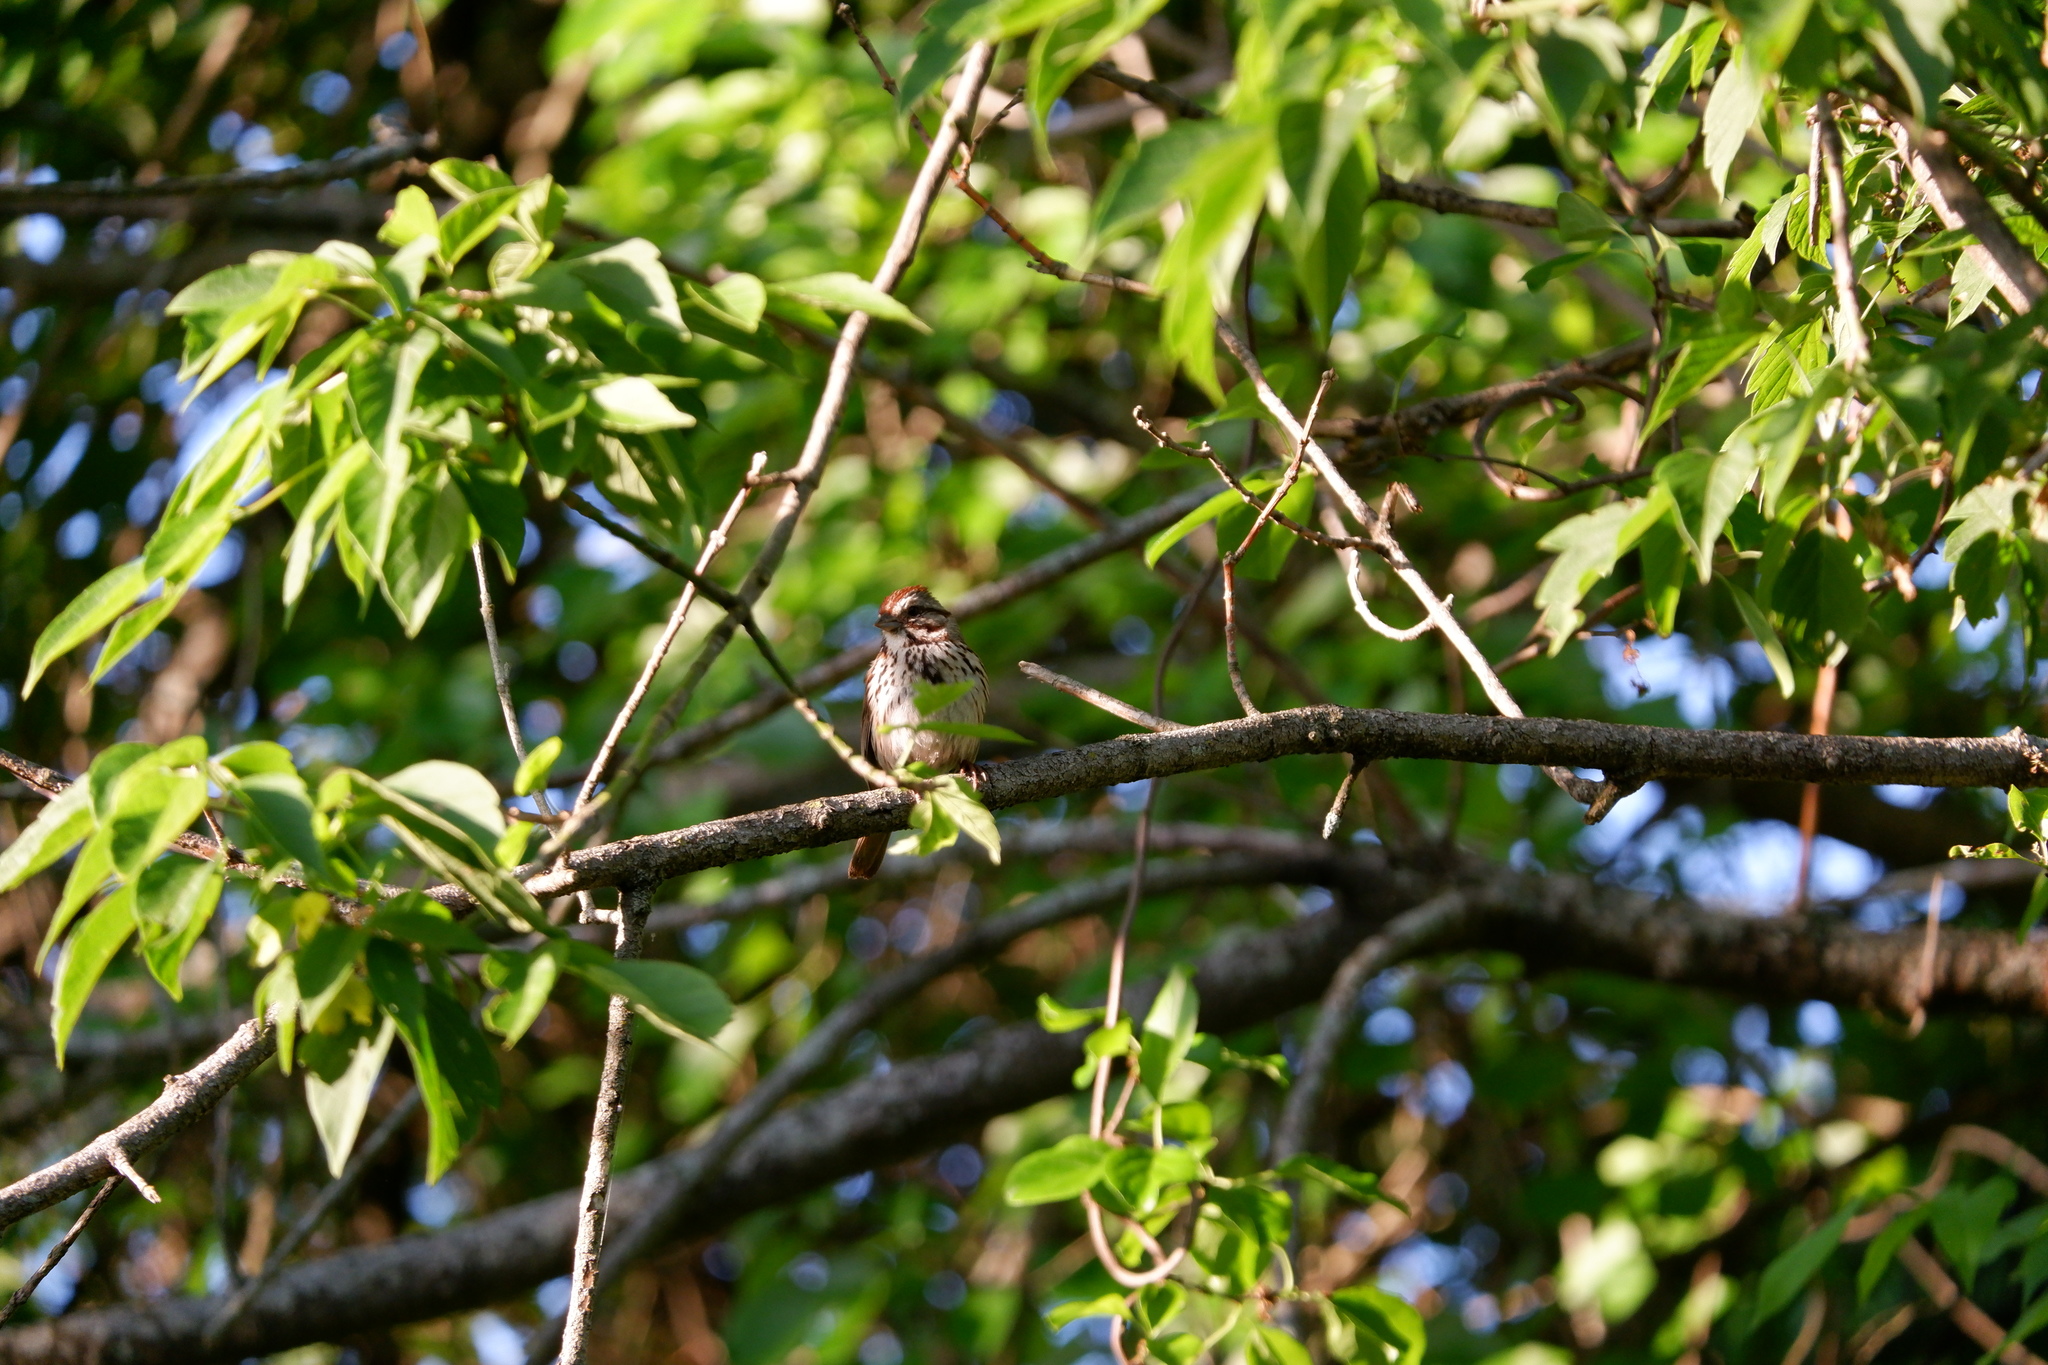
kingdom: Animalia
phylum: Chordata
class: Aves
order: Passeriformes
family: Passerellidae
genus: Melospiza
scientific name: Melospiza melodia
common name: Song sparrow
